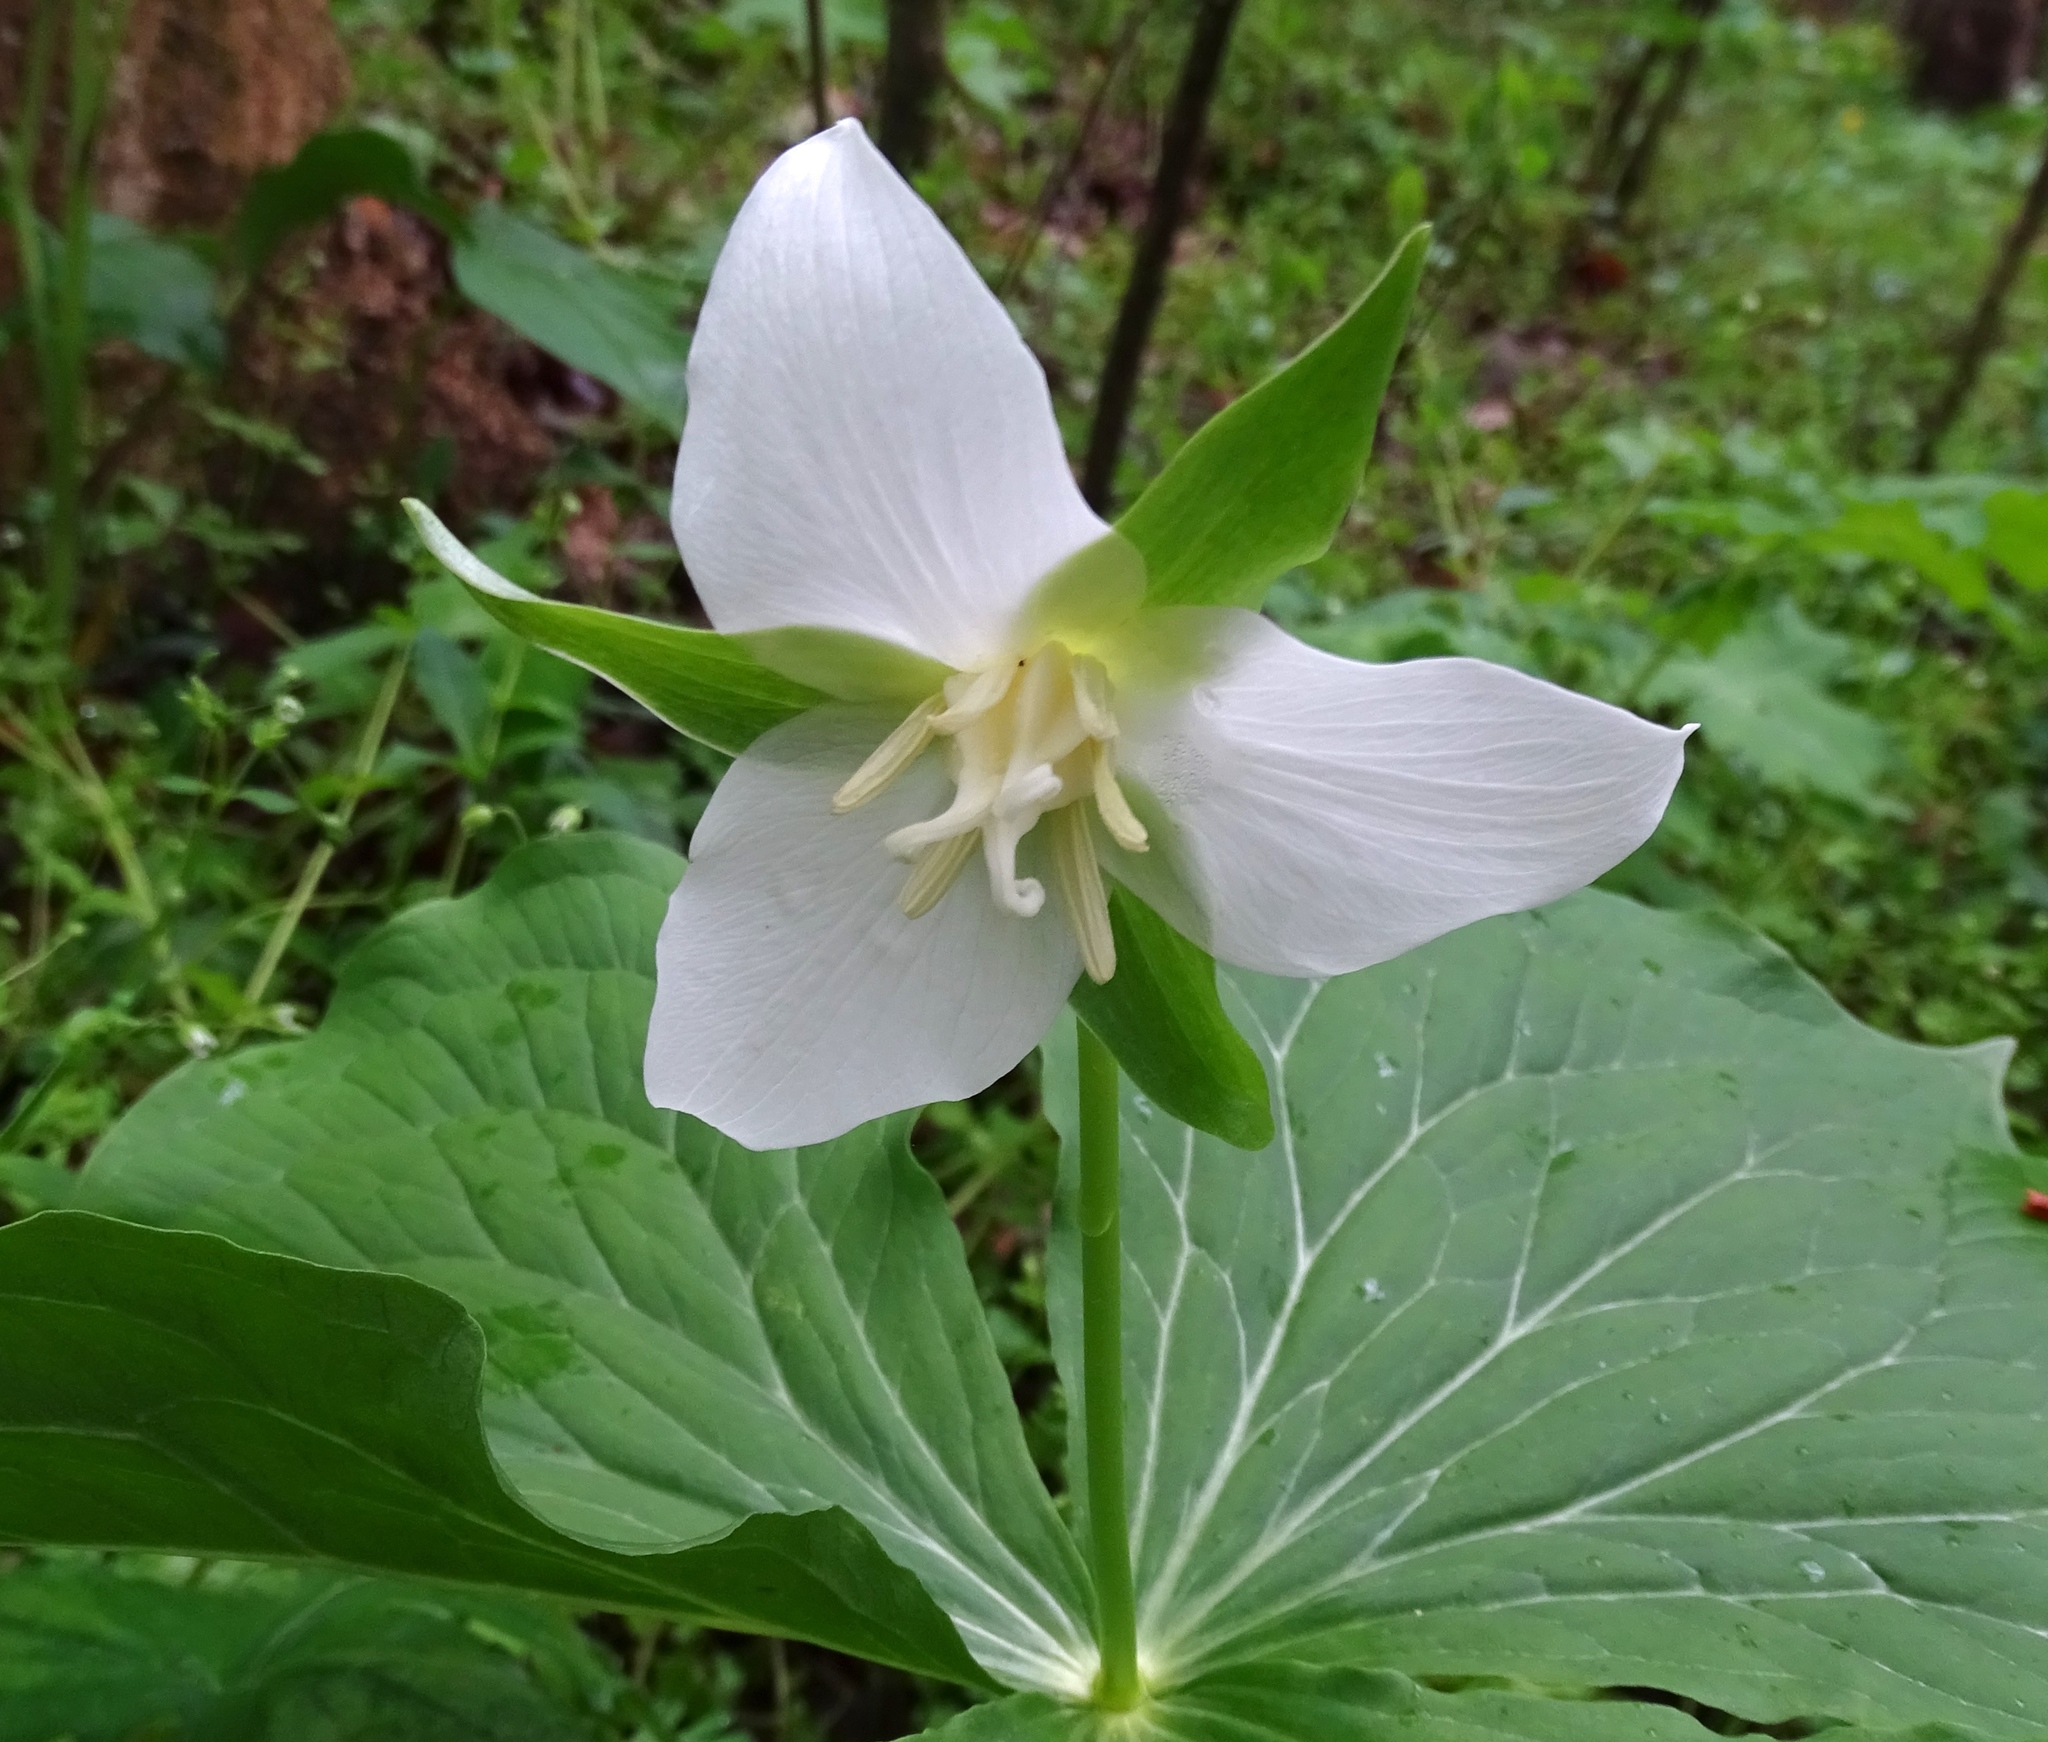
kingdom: Plantae
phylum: Tracheophyta
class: Liliopsida
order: Liliales
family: Melanthiaceae
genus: Trillium
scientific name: Trillium flexipes
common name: Drooping trillium
